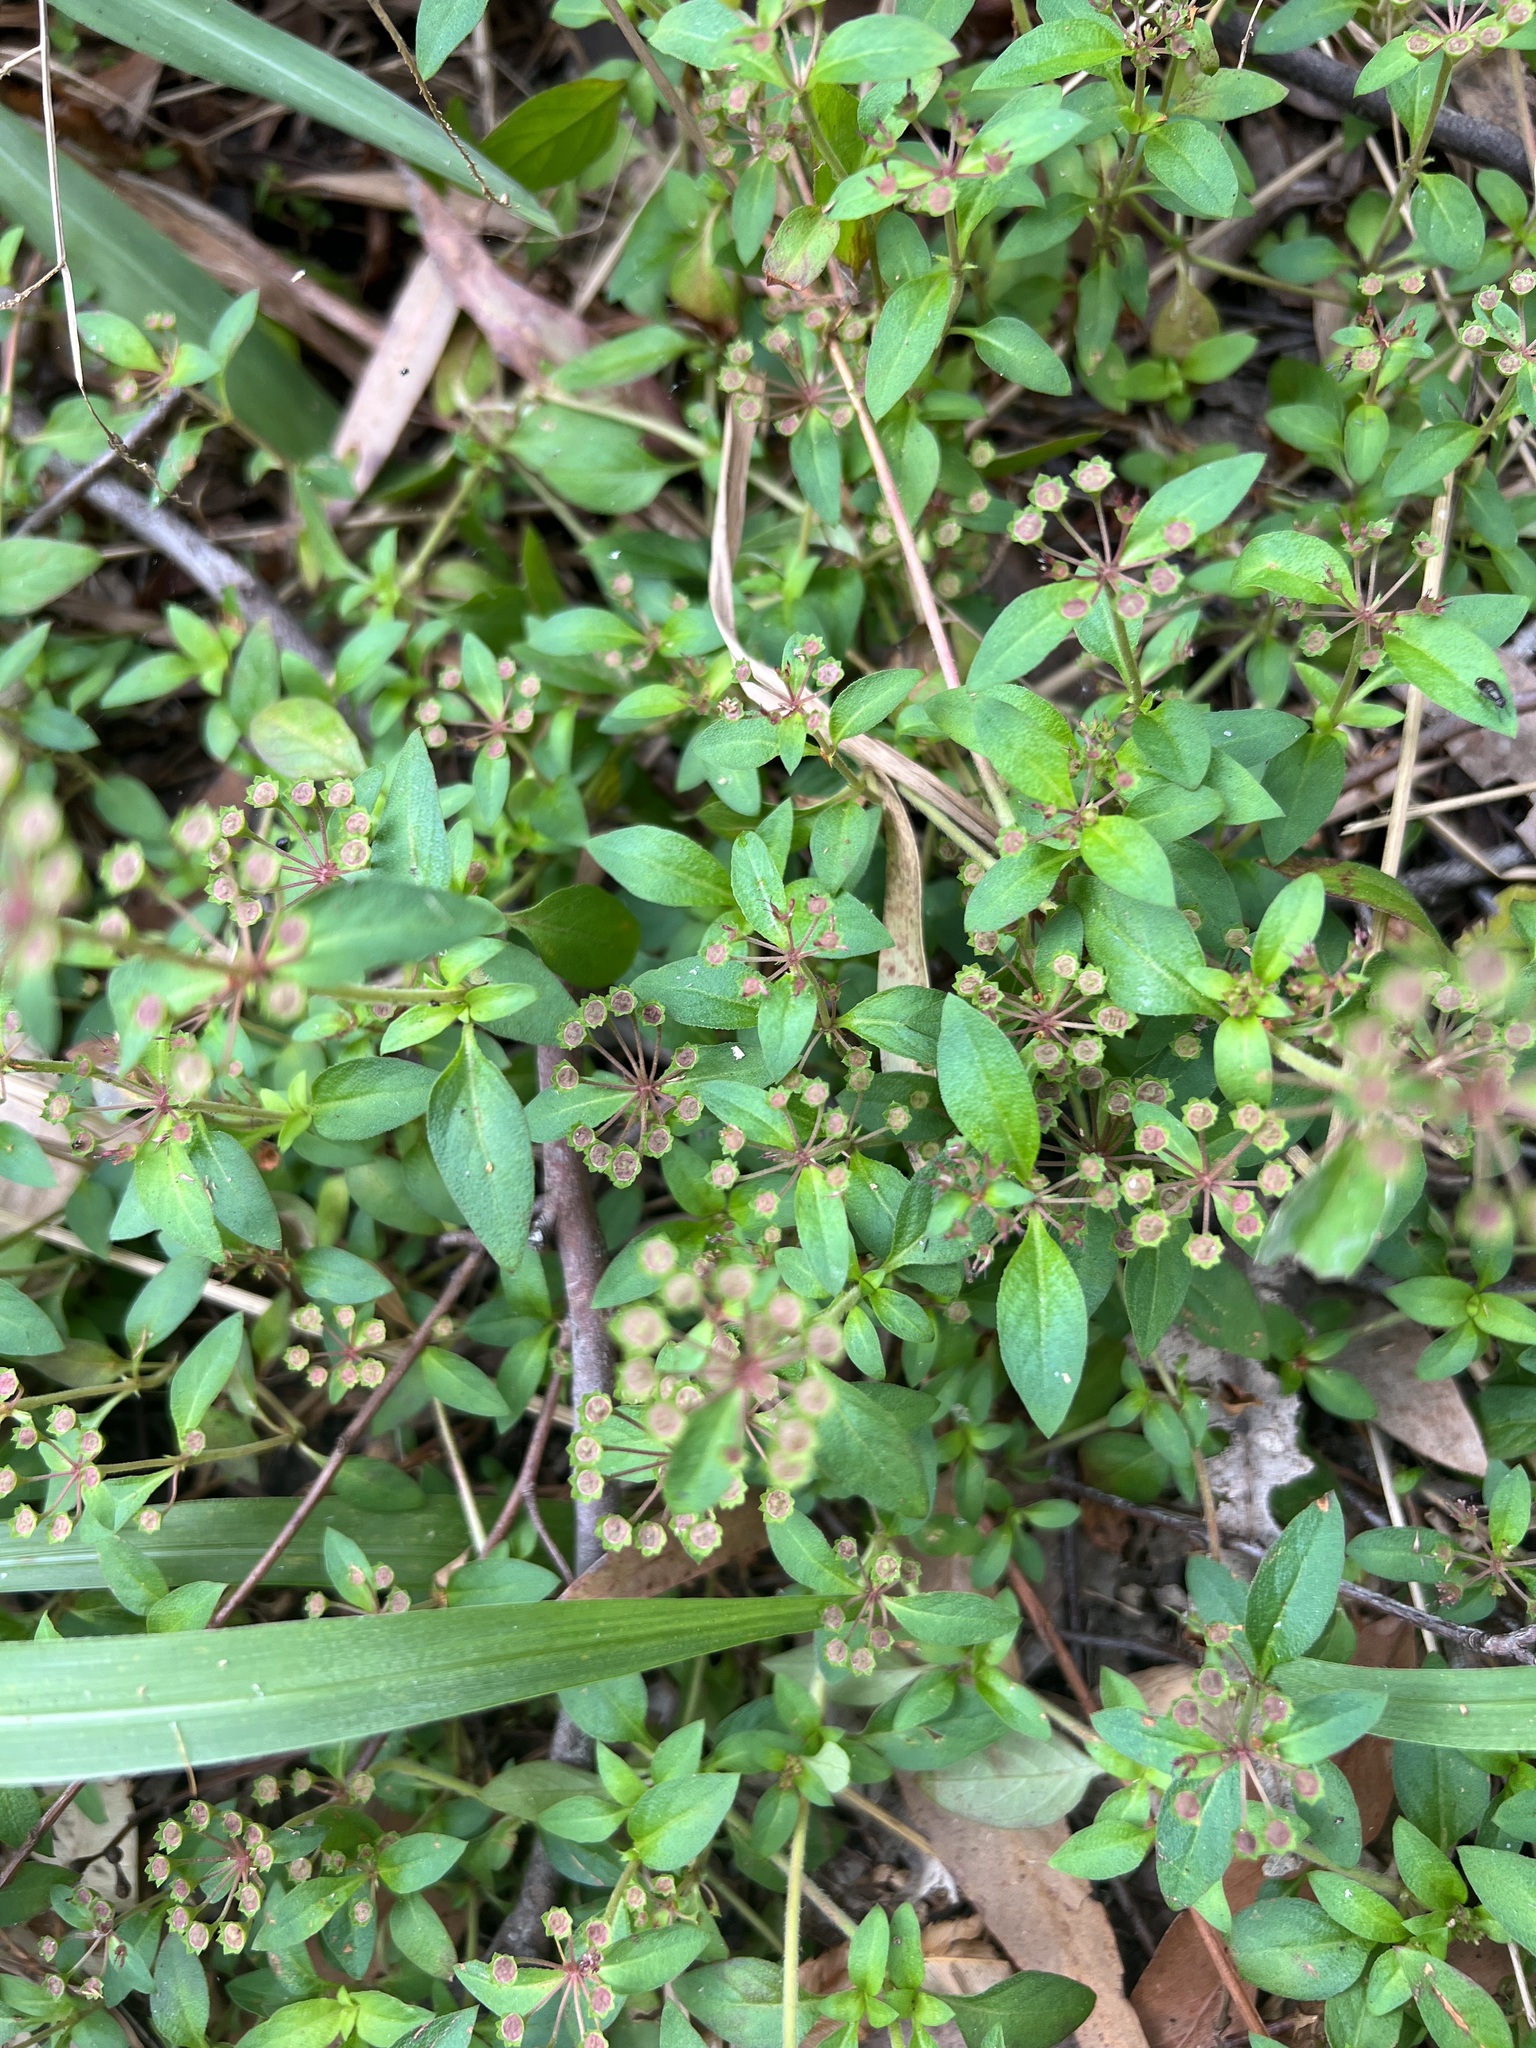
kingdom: Plantae
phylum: Tracheophyta
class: Magnoliopsida
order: Gentianales
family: Rubiaceae
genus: Pomax
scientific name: Pomax umbellata
